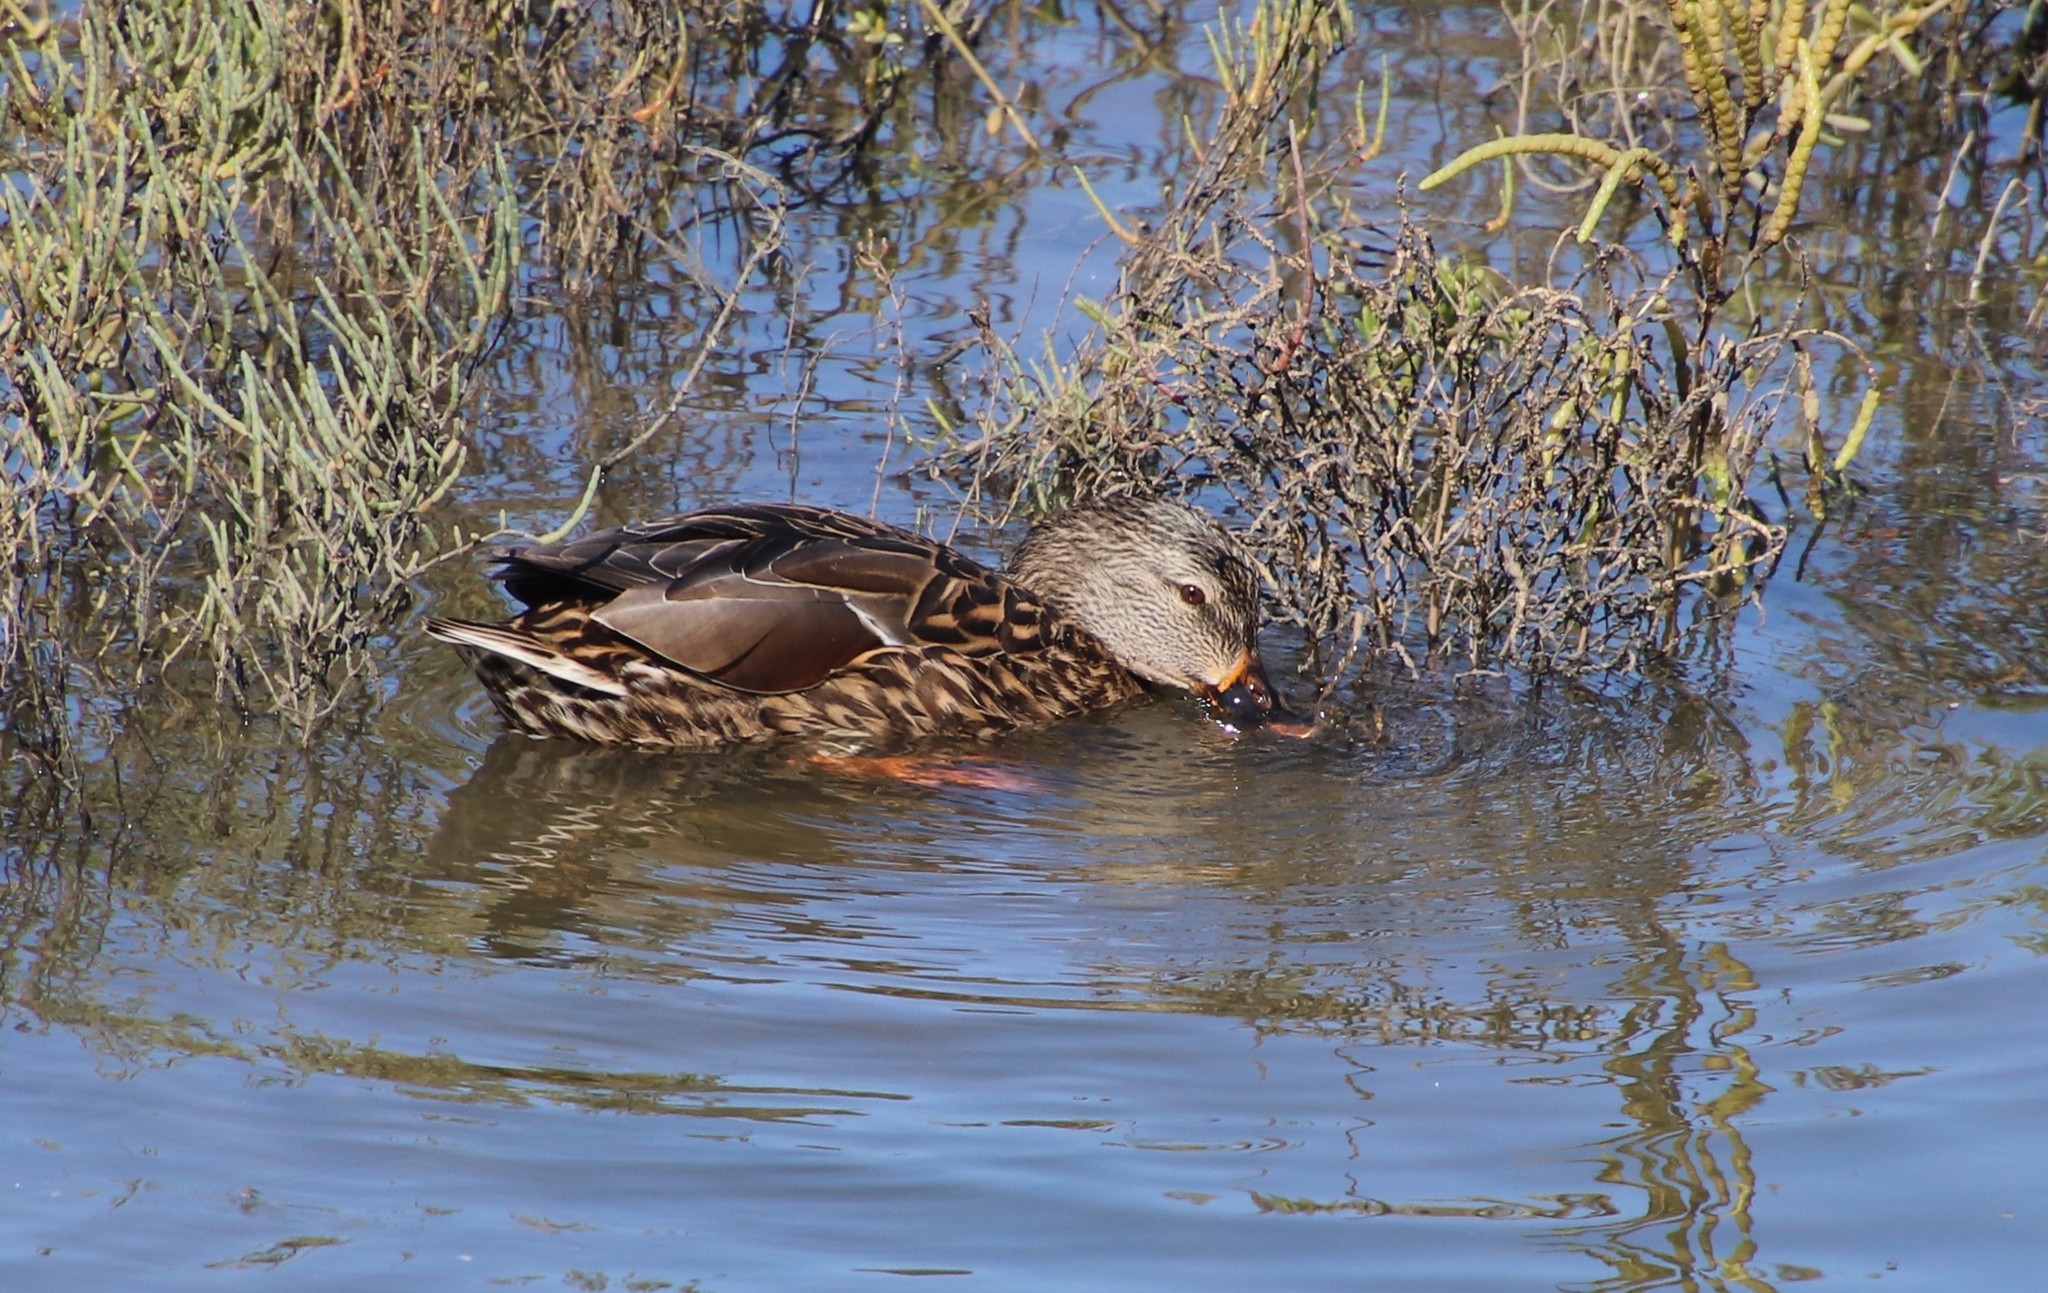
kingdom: Animalia
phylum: Chordata
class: Aves
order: Anseriformes
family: Anatidae
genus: Anas
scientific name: Anas platyrhynchos
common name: Mallard
